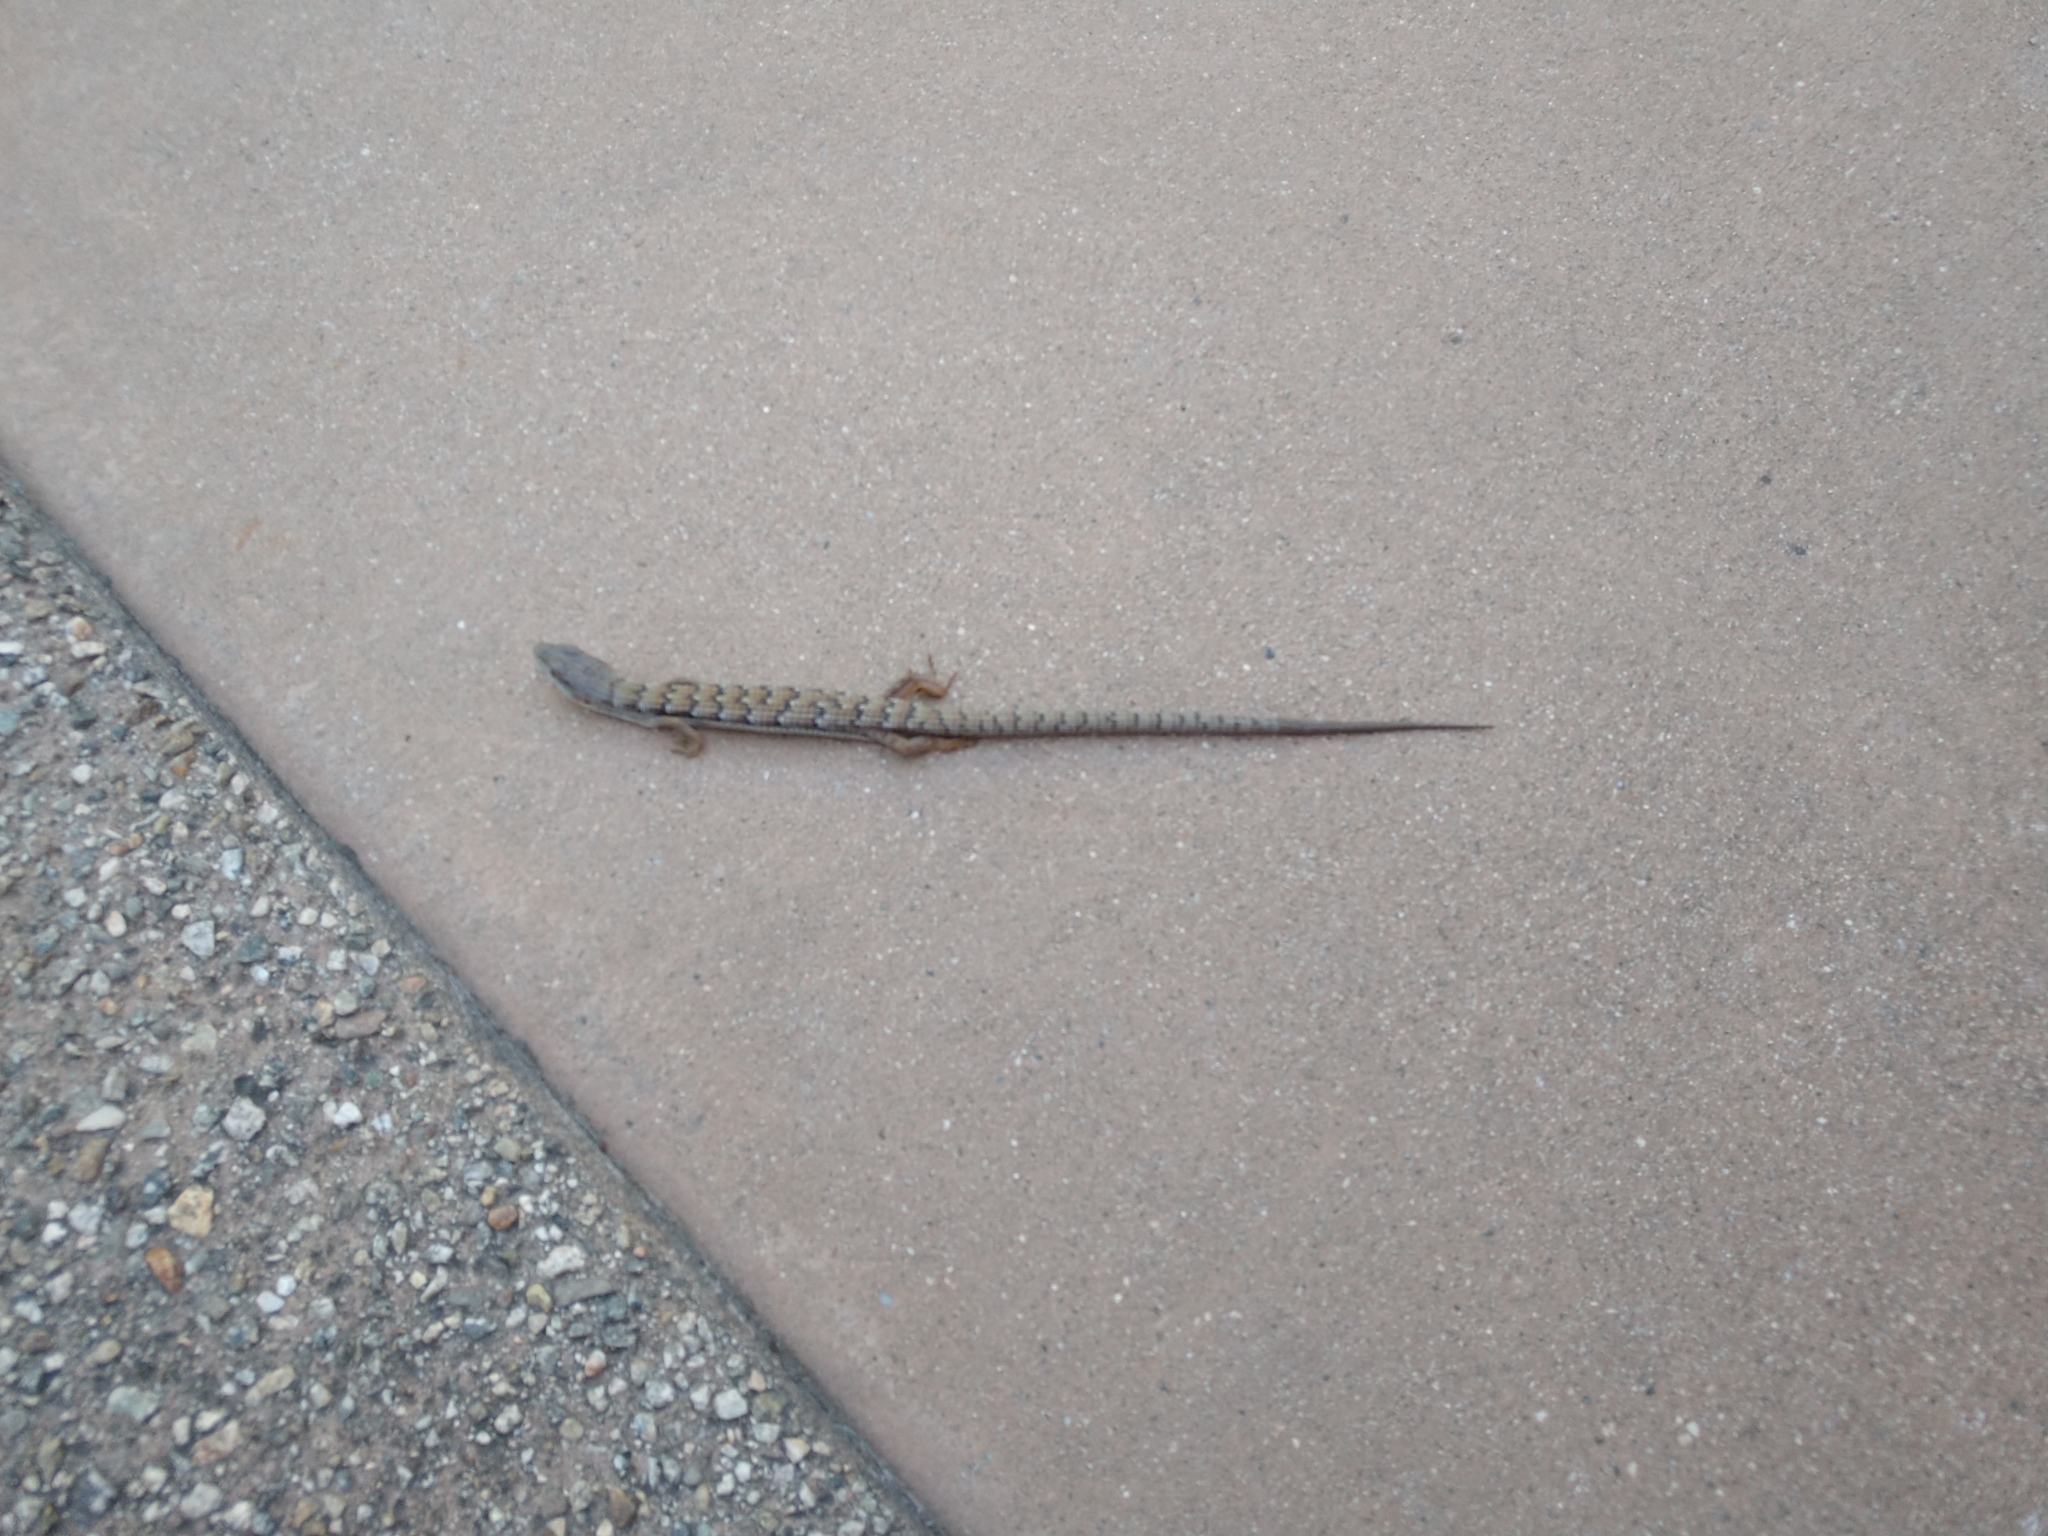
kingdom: Animalia
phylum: Chordata
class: Squamata
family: Anguidae
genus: Elgaria
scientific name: Elgaria multicarinata
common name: Southern alligator lizard
